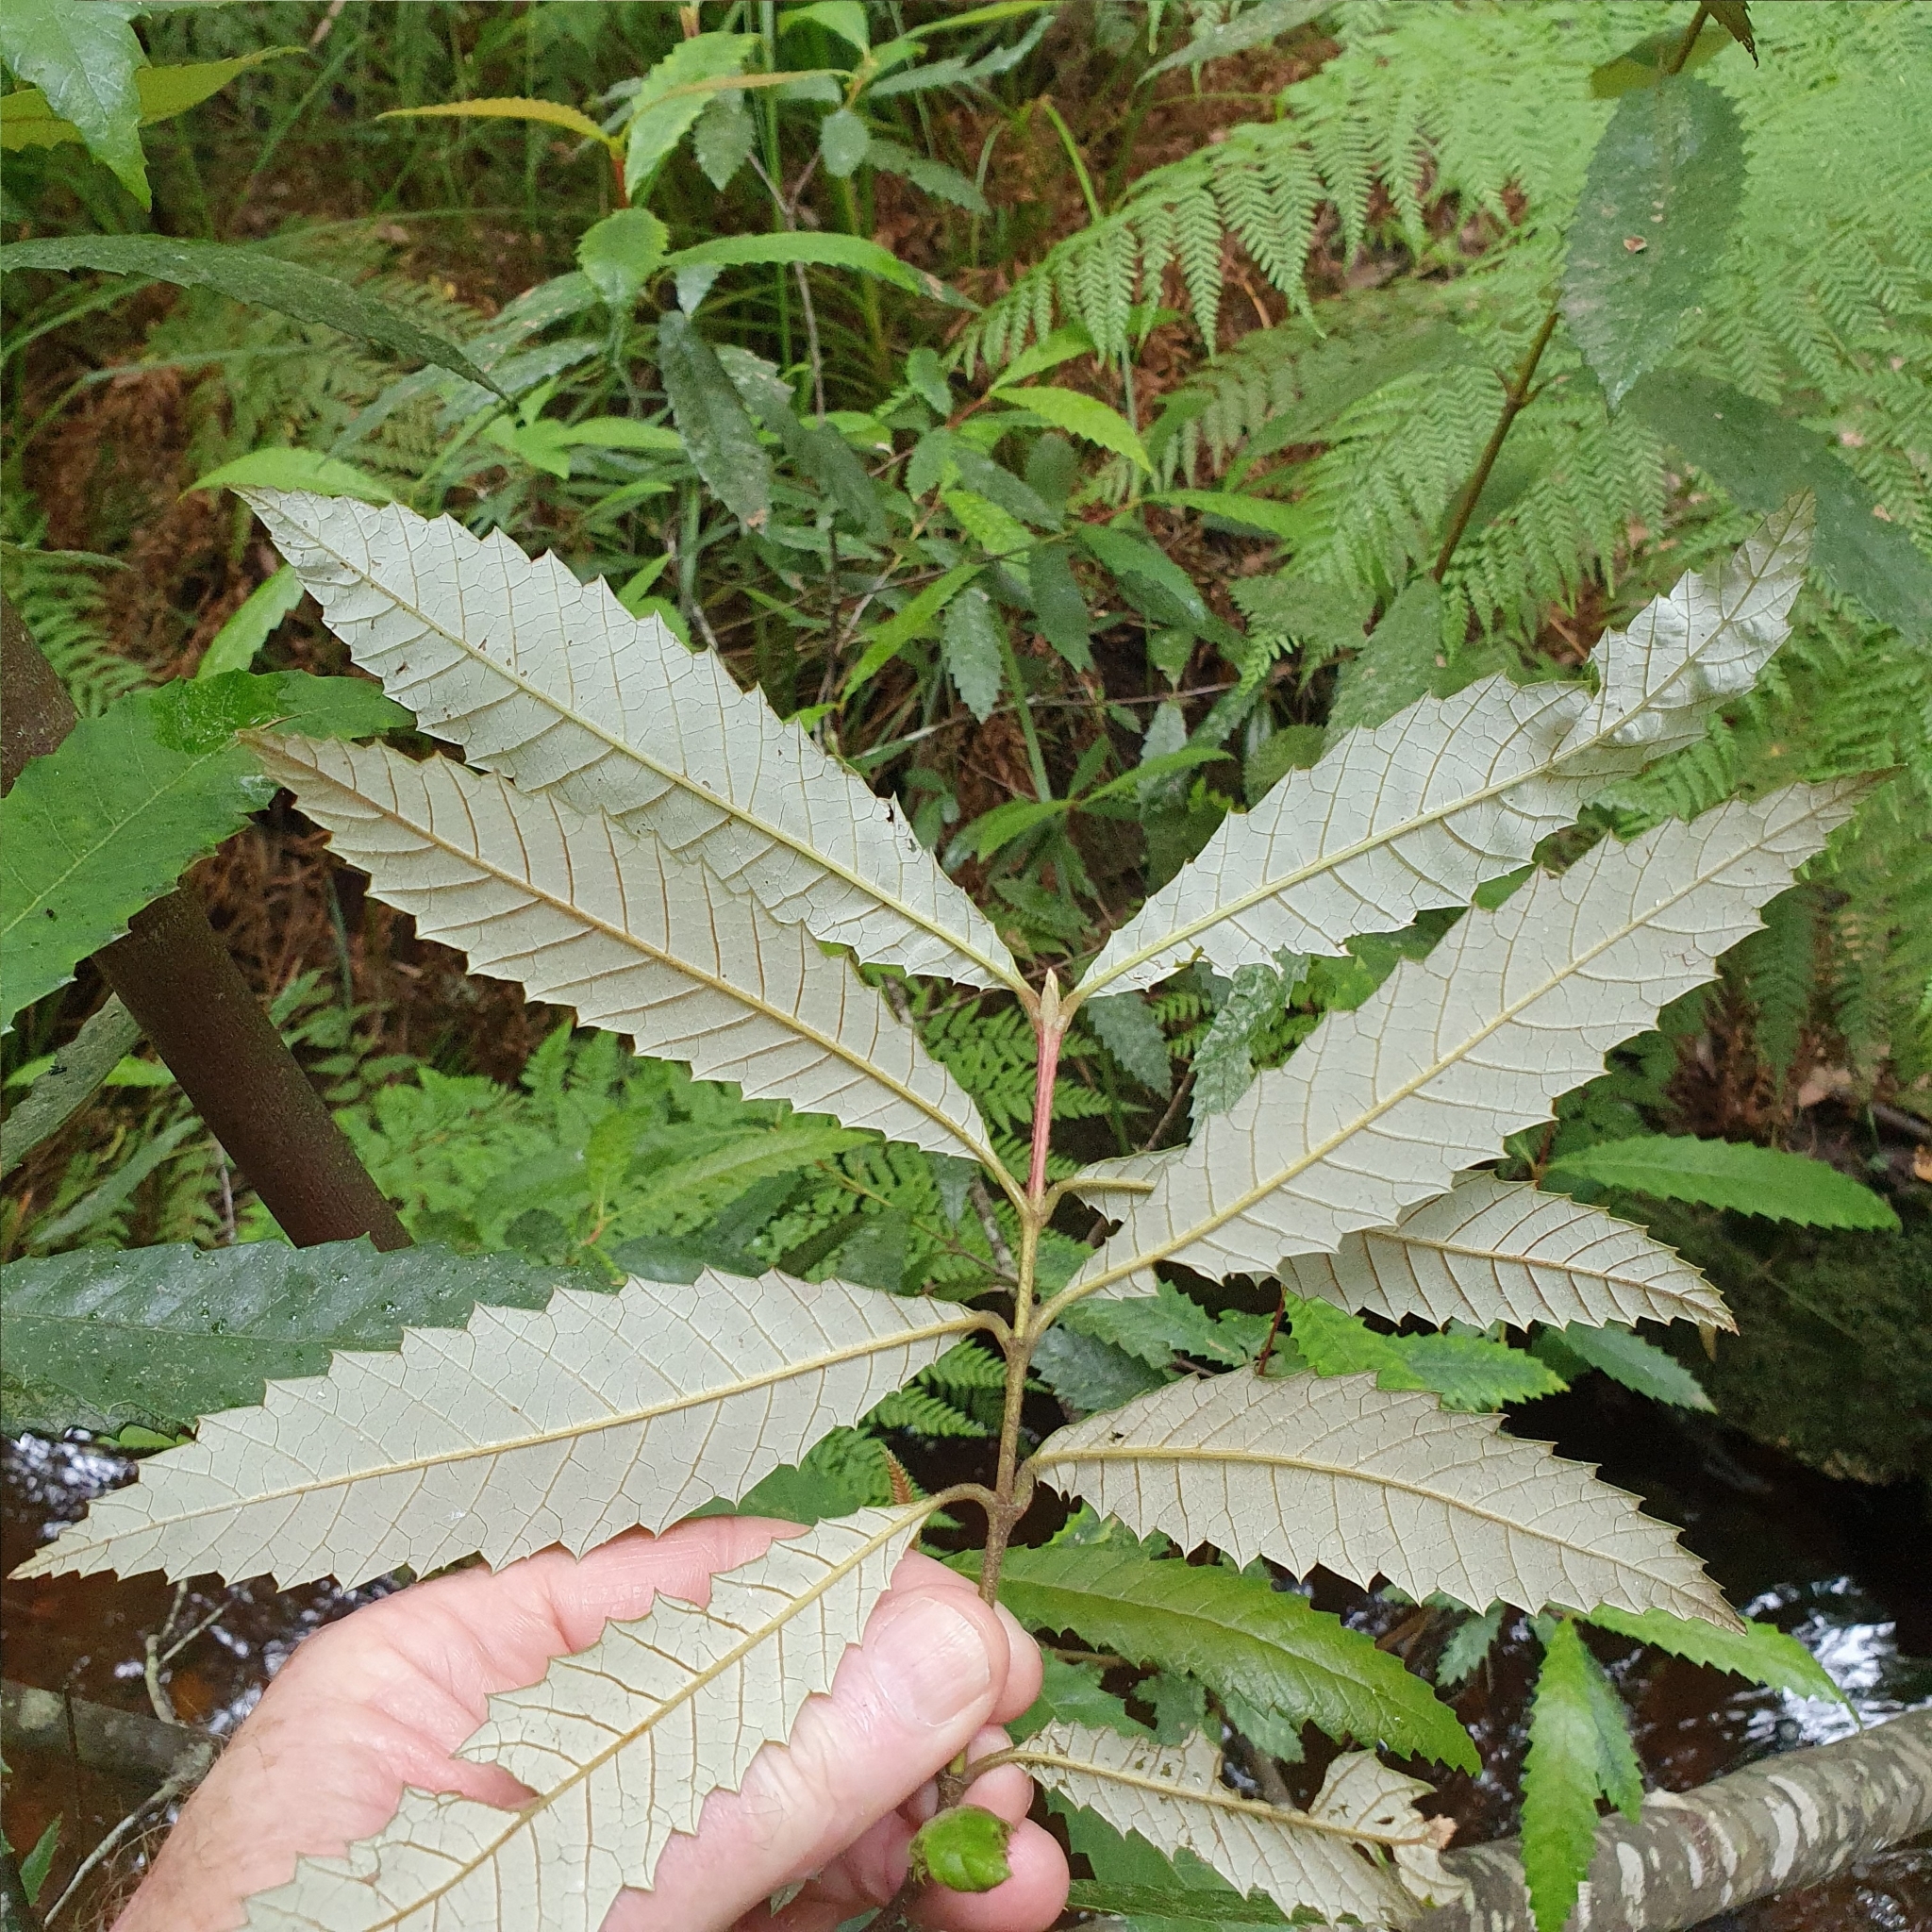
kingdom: Plantae
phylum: Tracheophyta
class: Magnoliopsida
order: Oxalidales
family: Cunoniaceae
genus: Callicoma
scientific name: Callicoma serratifolia
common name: Black wattle
